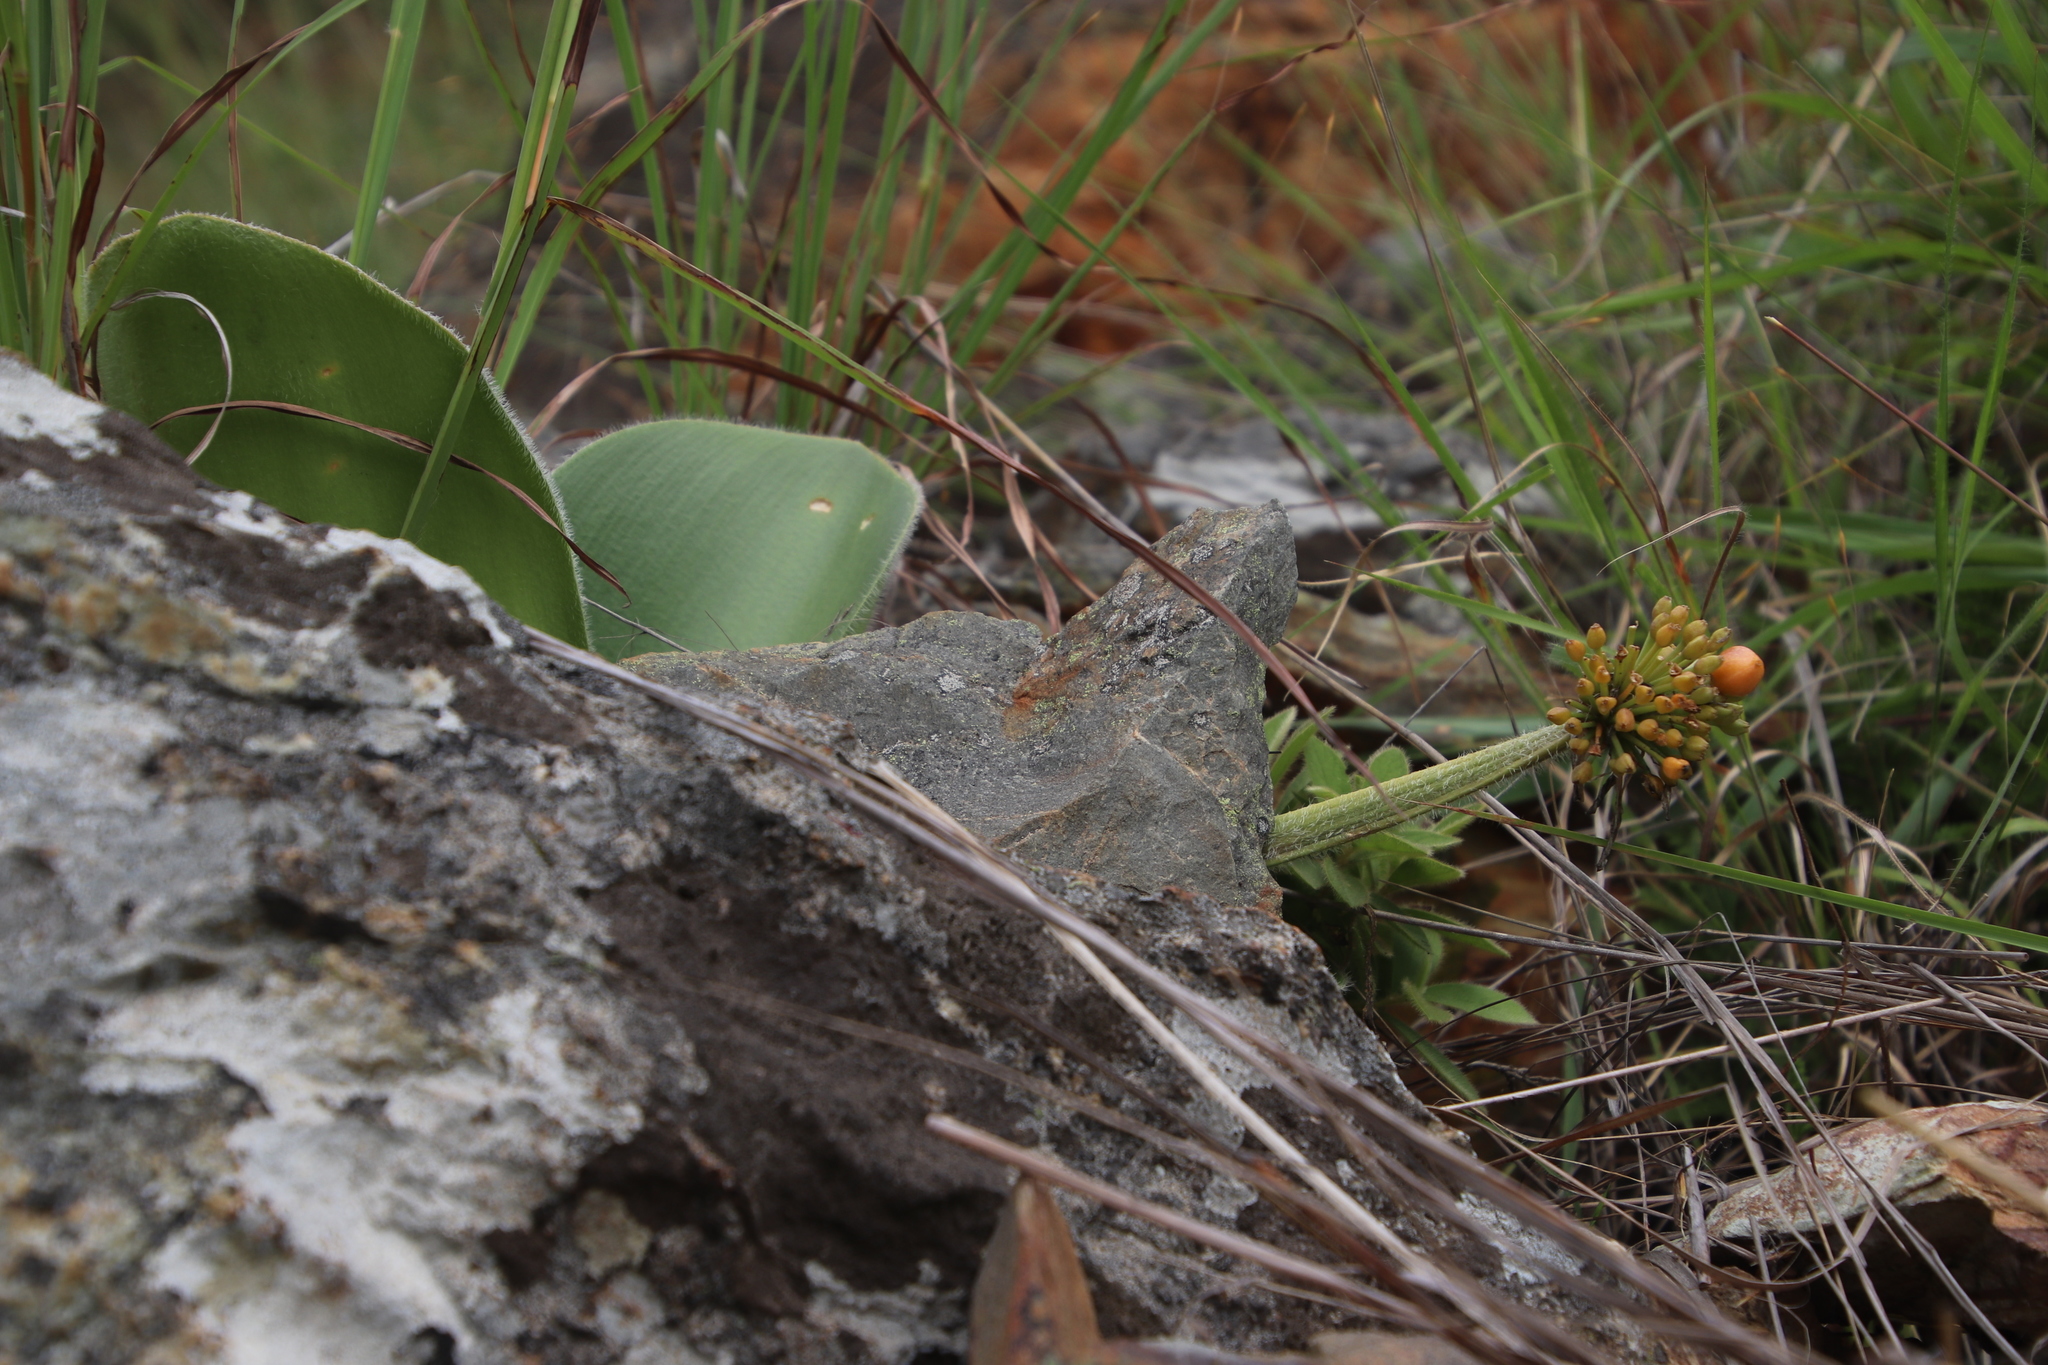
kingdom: Plantae
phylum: Tracheophyta
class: Liliopsida
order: Asparagales
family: Amaryllidaceae
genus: Haemanthus
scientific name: Haemanthus humilis
